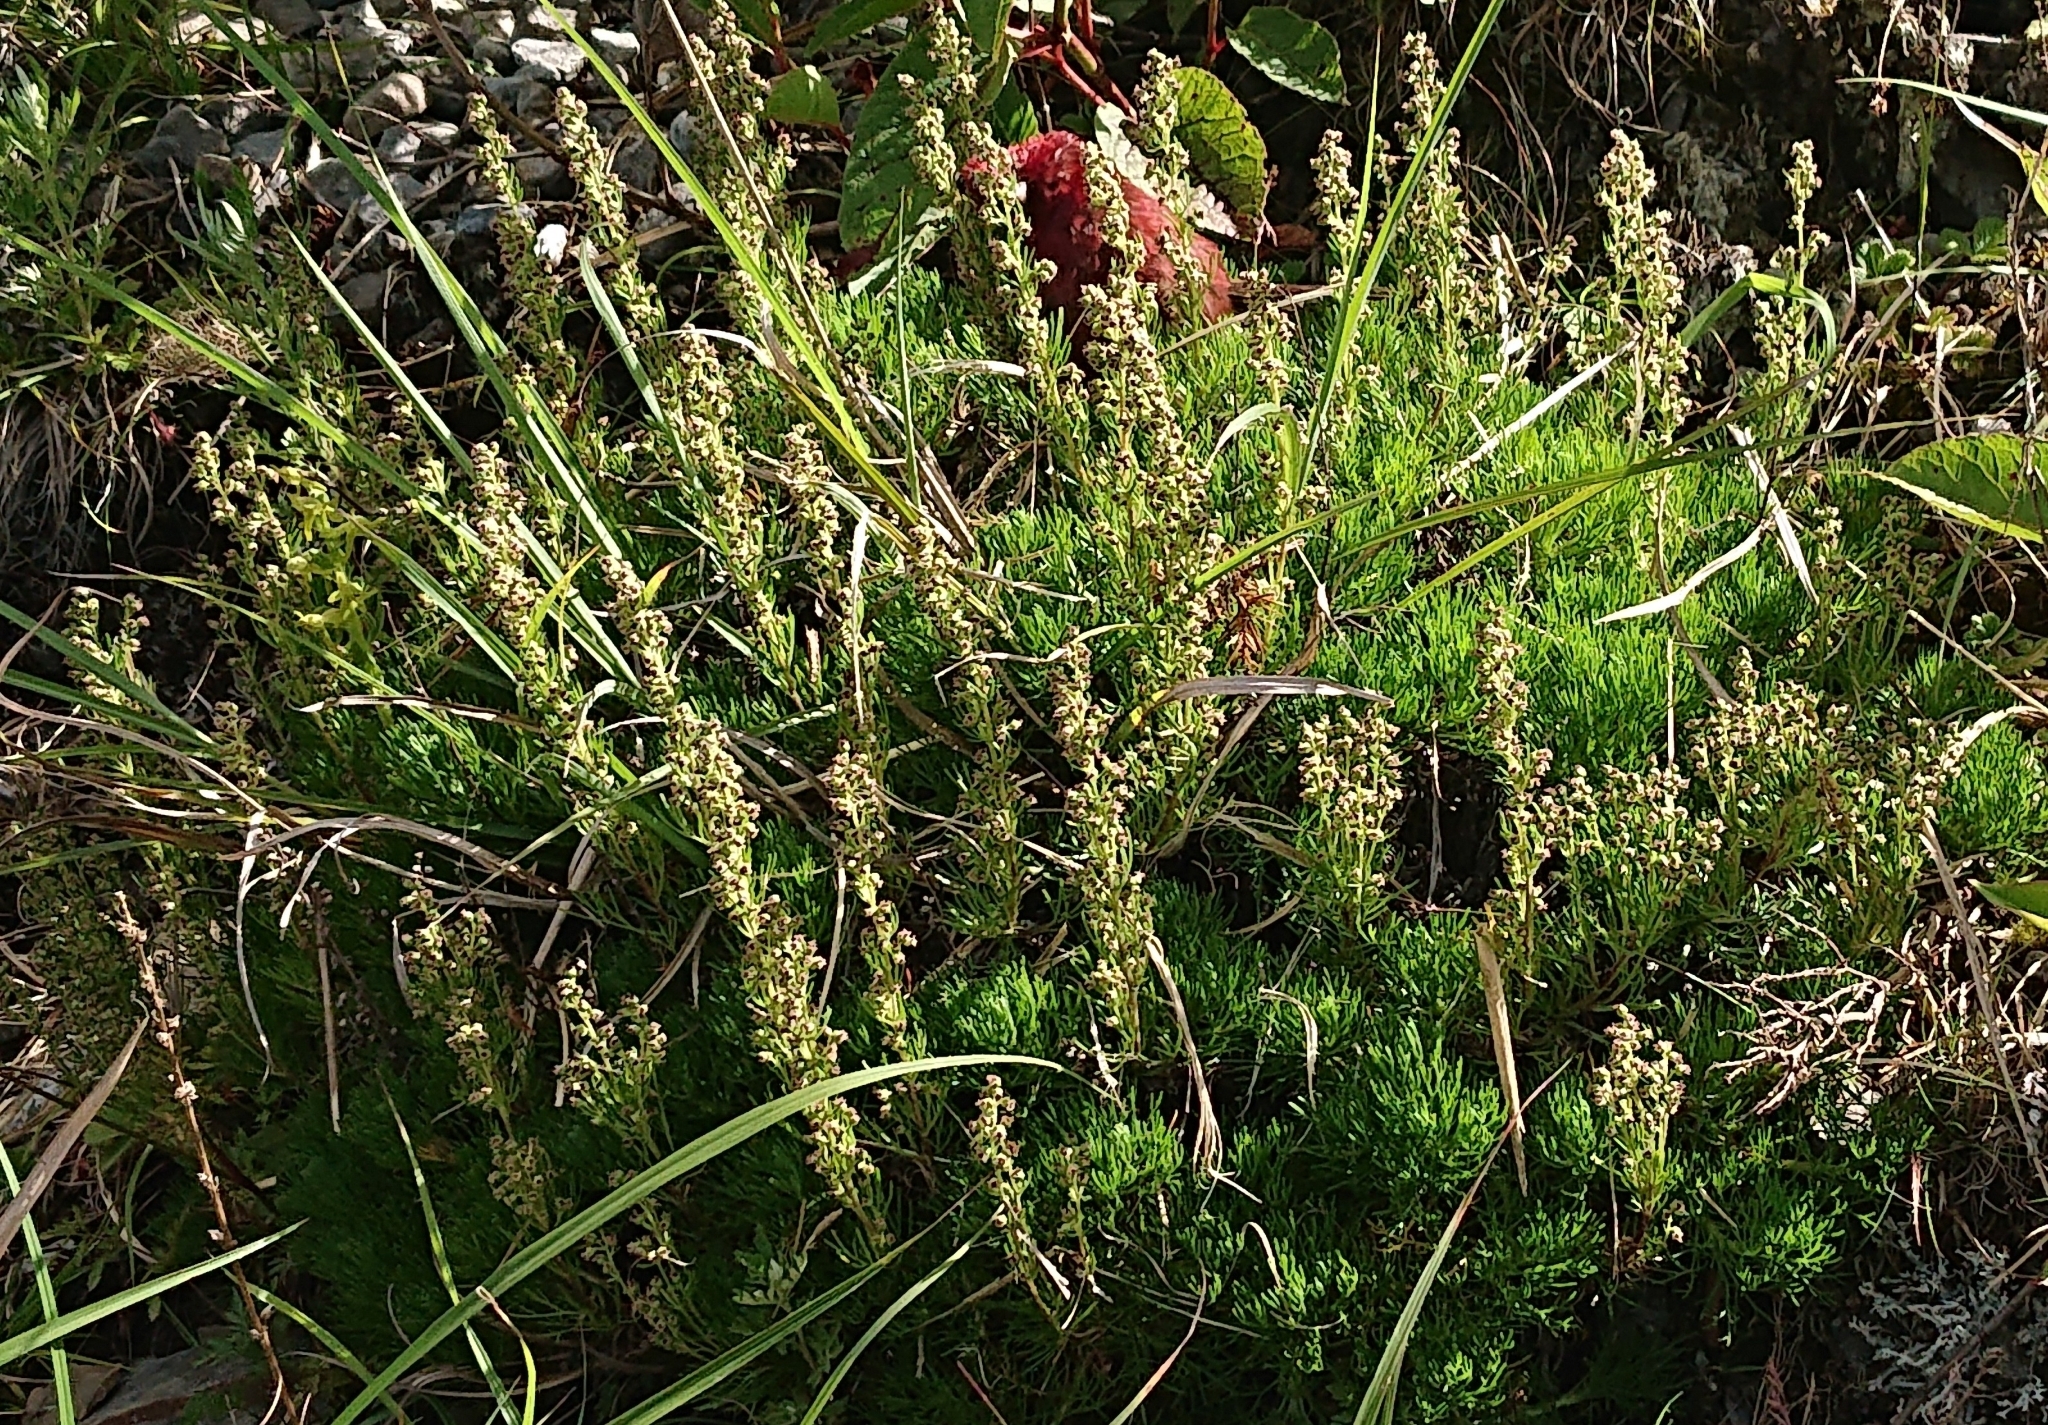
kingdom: Plantae
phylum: Tracheophyta
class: Magnoliopsida
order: Asterales
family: Asteraceae
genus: Artemisia
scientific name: Artemisia morrisonensis
